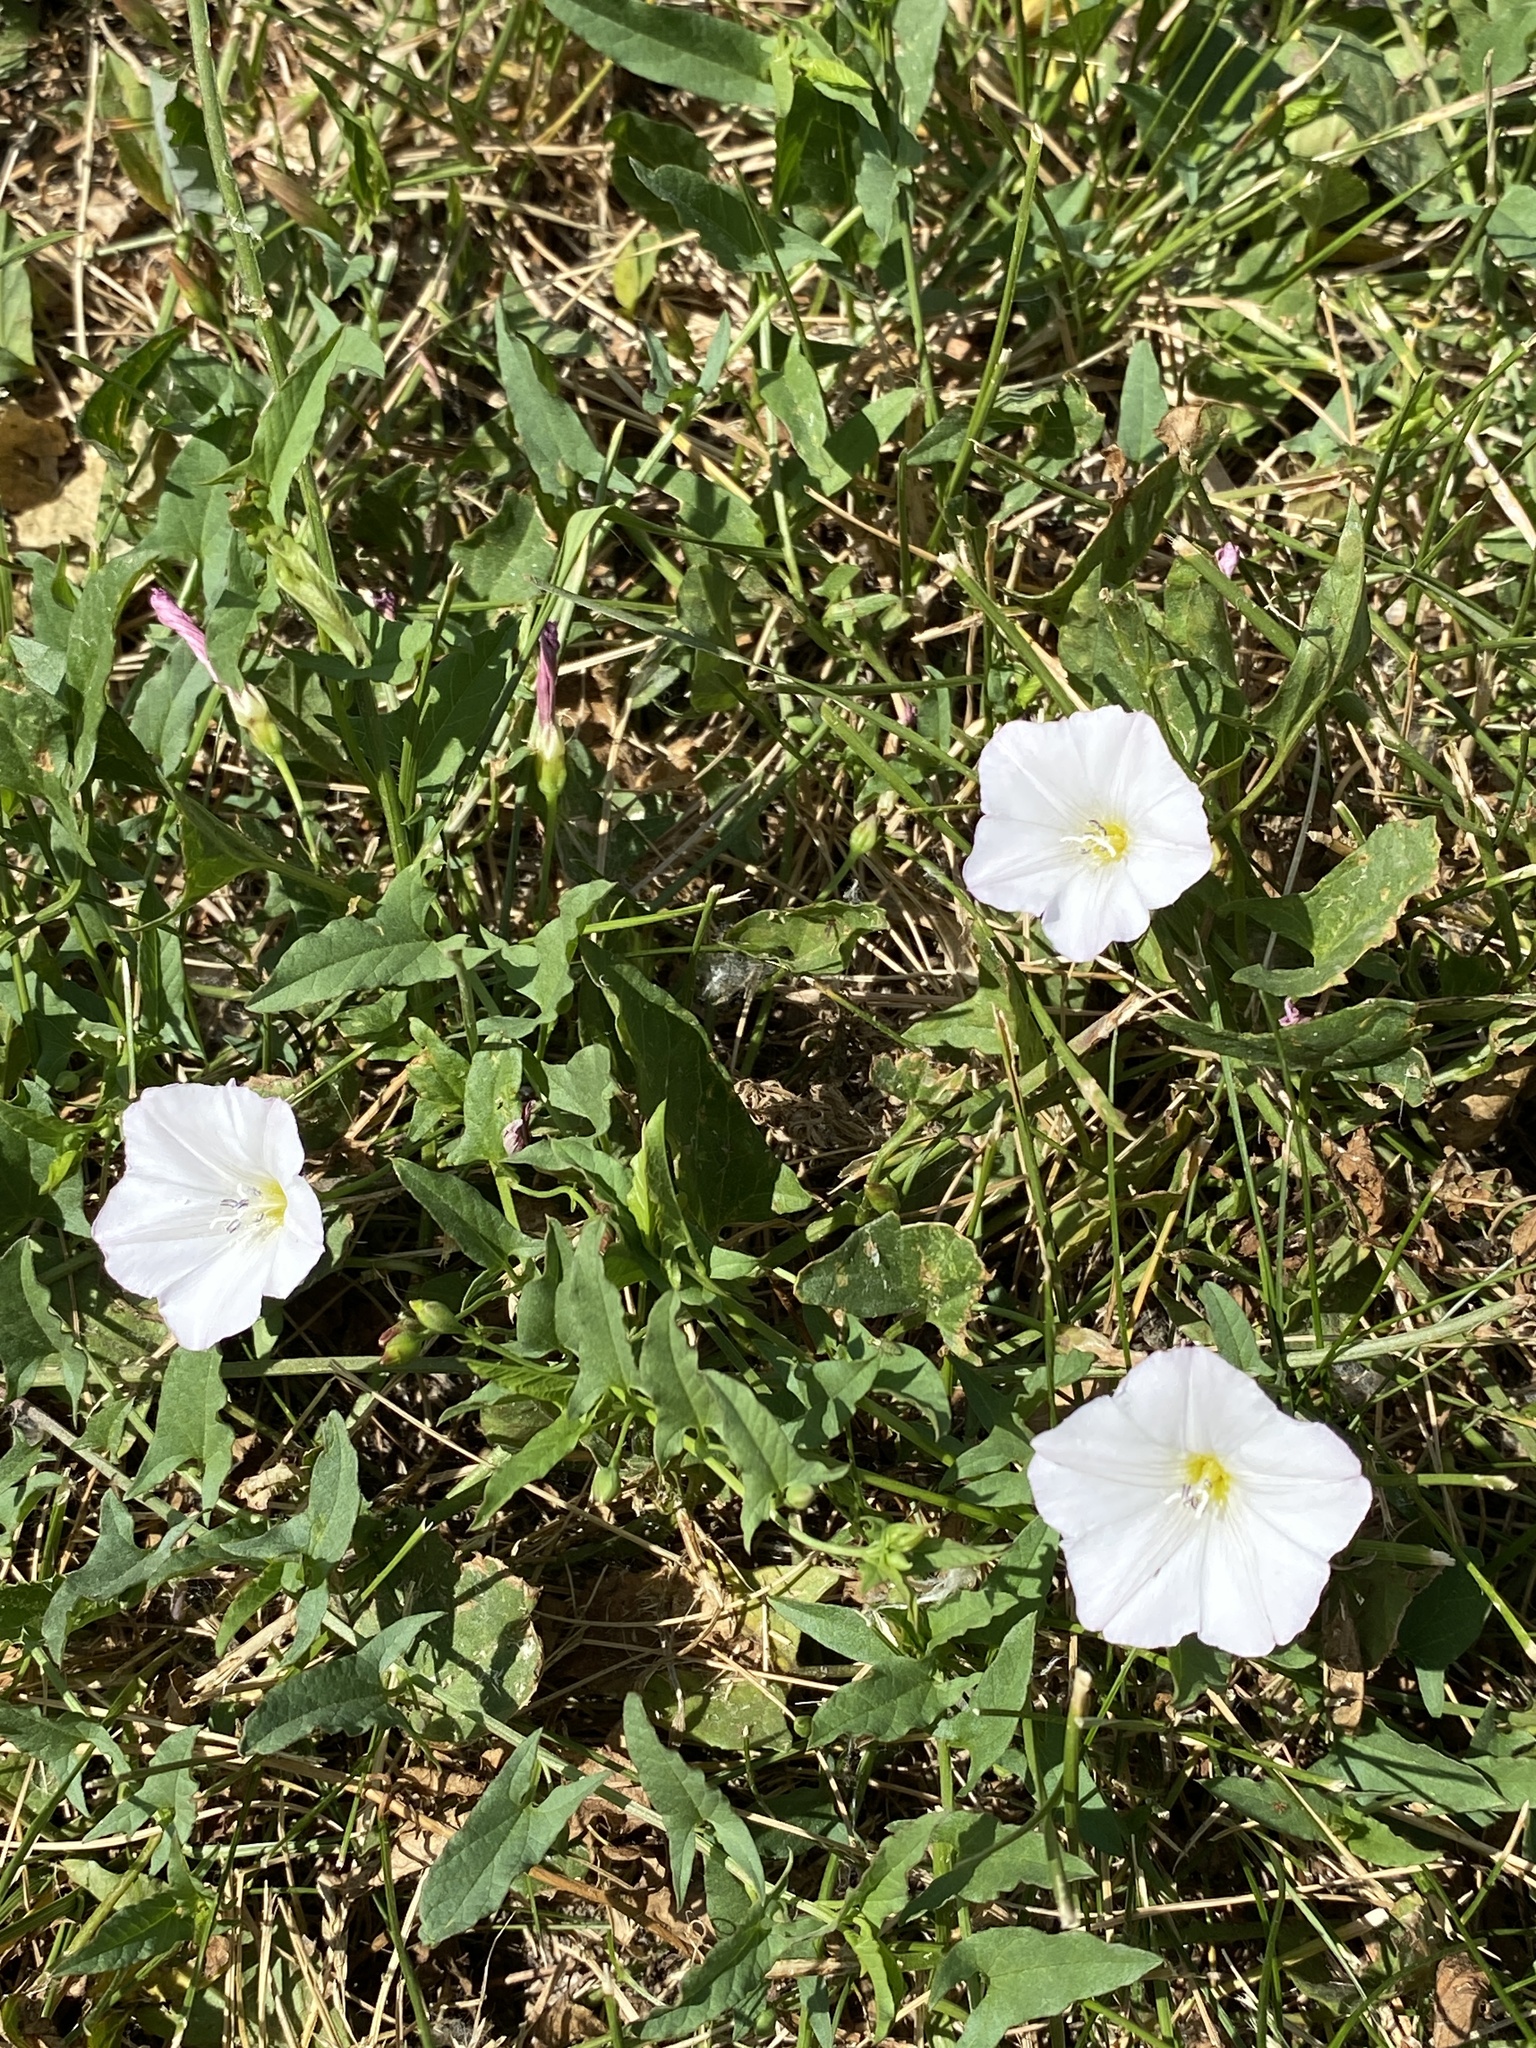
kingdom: Plantae
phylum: Tracheophyta
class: Magnoliopsida
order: Solanales
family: Convolvulaceae
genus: Convolvulus
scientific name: Convolvulus arvensis
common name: Field bindweed
